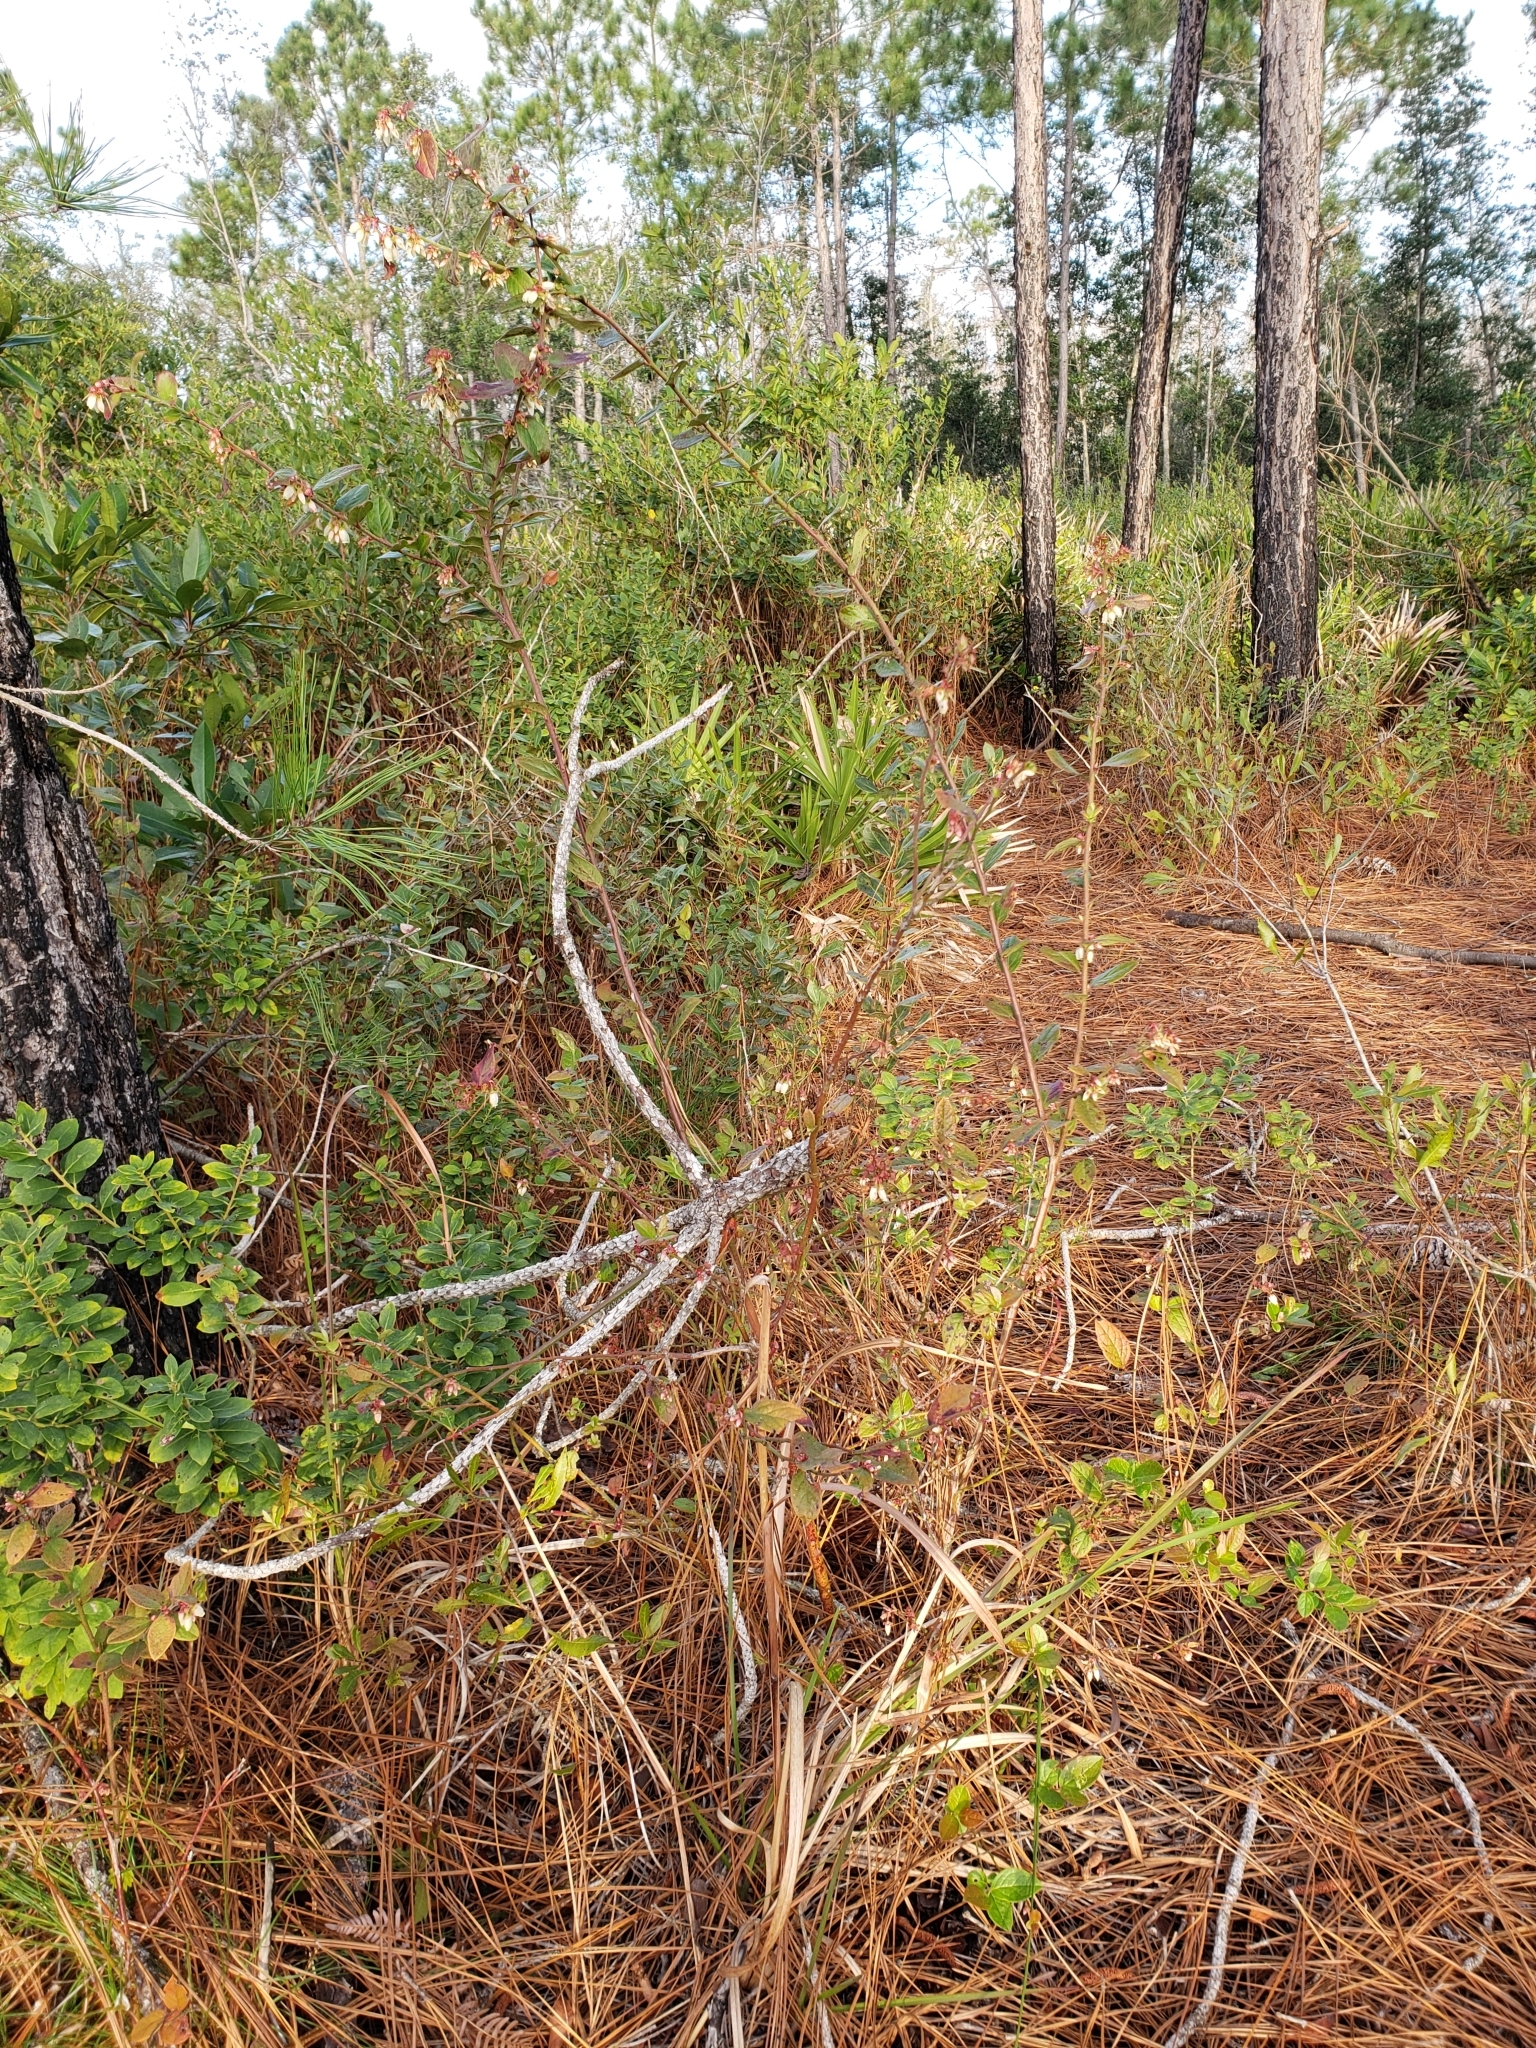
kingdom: Plantae
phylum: Tracheophyta
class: Magnoliopsida
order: Ericales
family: Ericaceae
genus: Vaccinium
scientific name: Vaccinium corymbosum
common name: Blueberry
